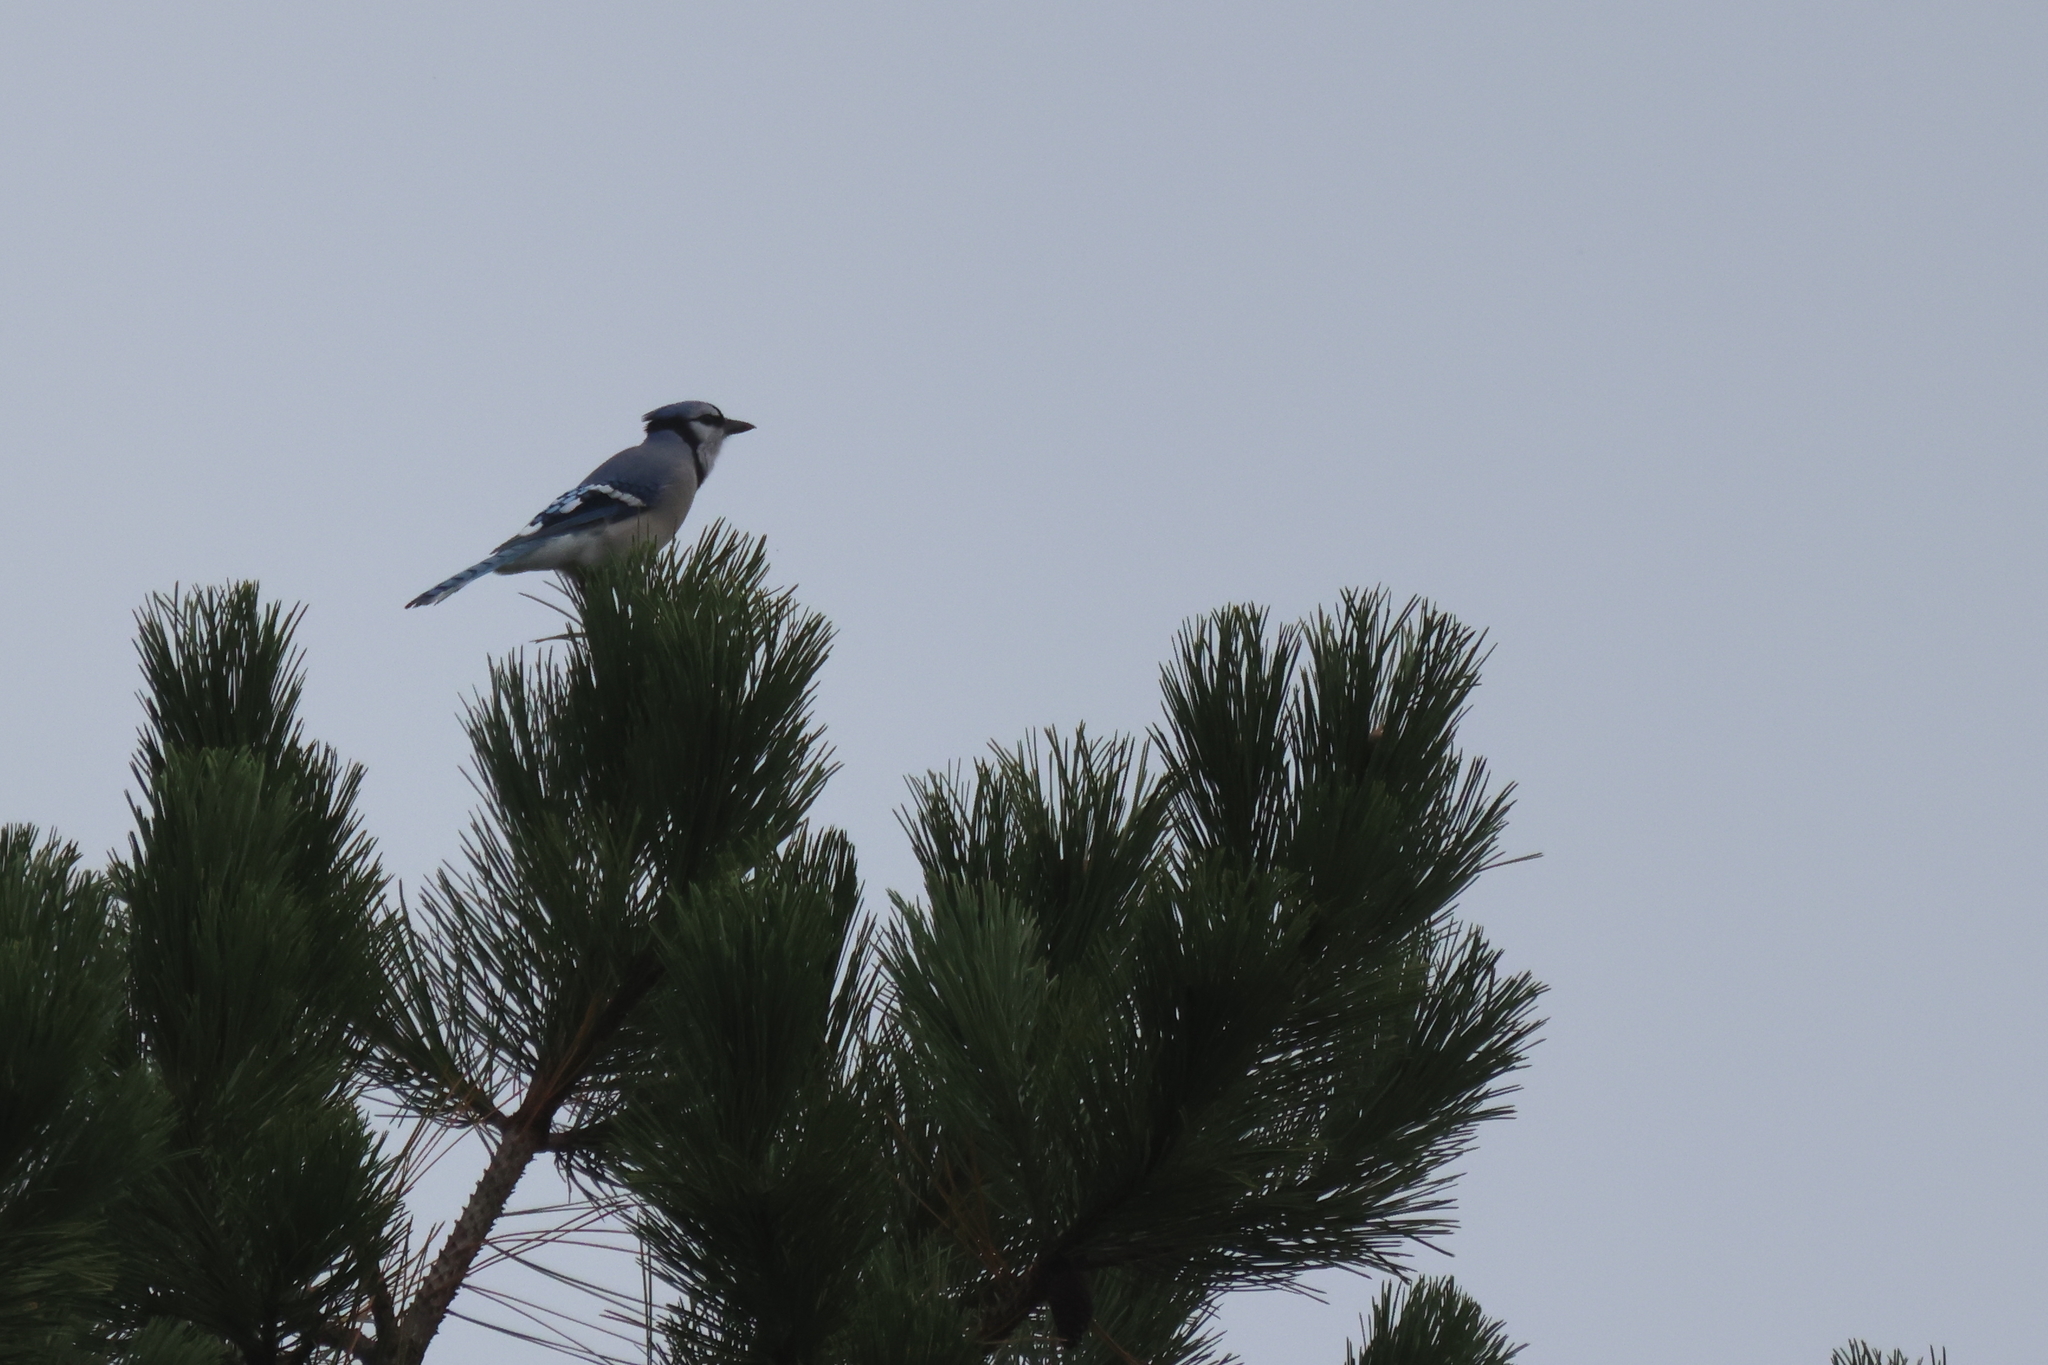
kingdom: Animalia
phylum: Chordata
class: Aves
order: Passeriformes
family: Corvidae
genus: Cyanocitta
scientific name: Cyanocitta cristata
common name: Blue jay
